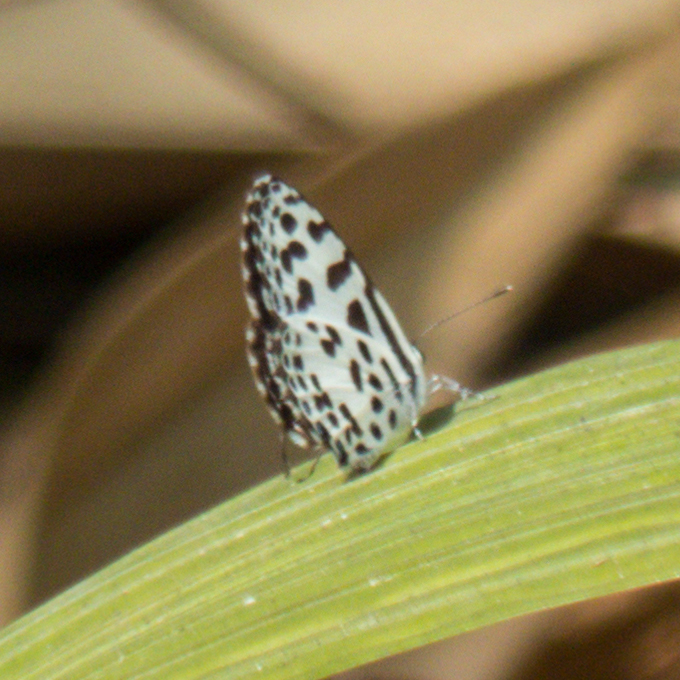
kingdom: Animalia
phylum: Arthropoda
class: Insecta
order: Lepidoptera
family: Lycaenidae
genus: Castalius
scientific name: Castalius rosimon
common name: Common pierrot
